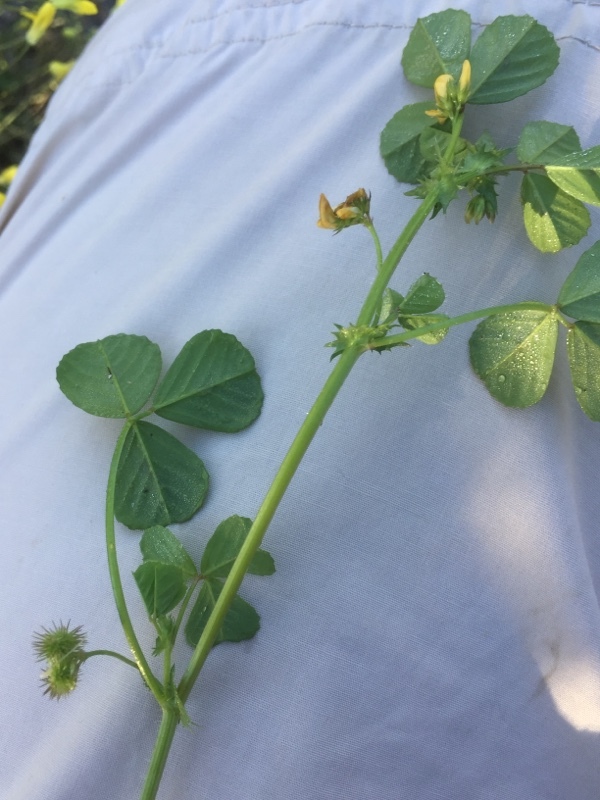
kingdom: Plantae
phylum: Tracheophyta
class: Magnoliopsida
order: Fabales
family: Fabaceae
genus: Medicago
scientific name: Medicago arabica
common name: Spotted medick
